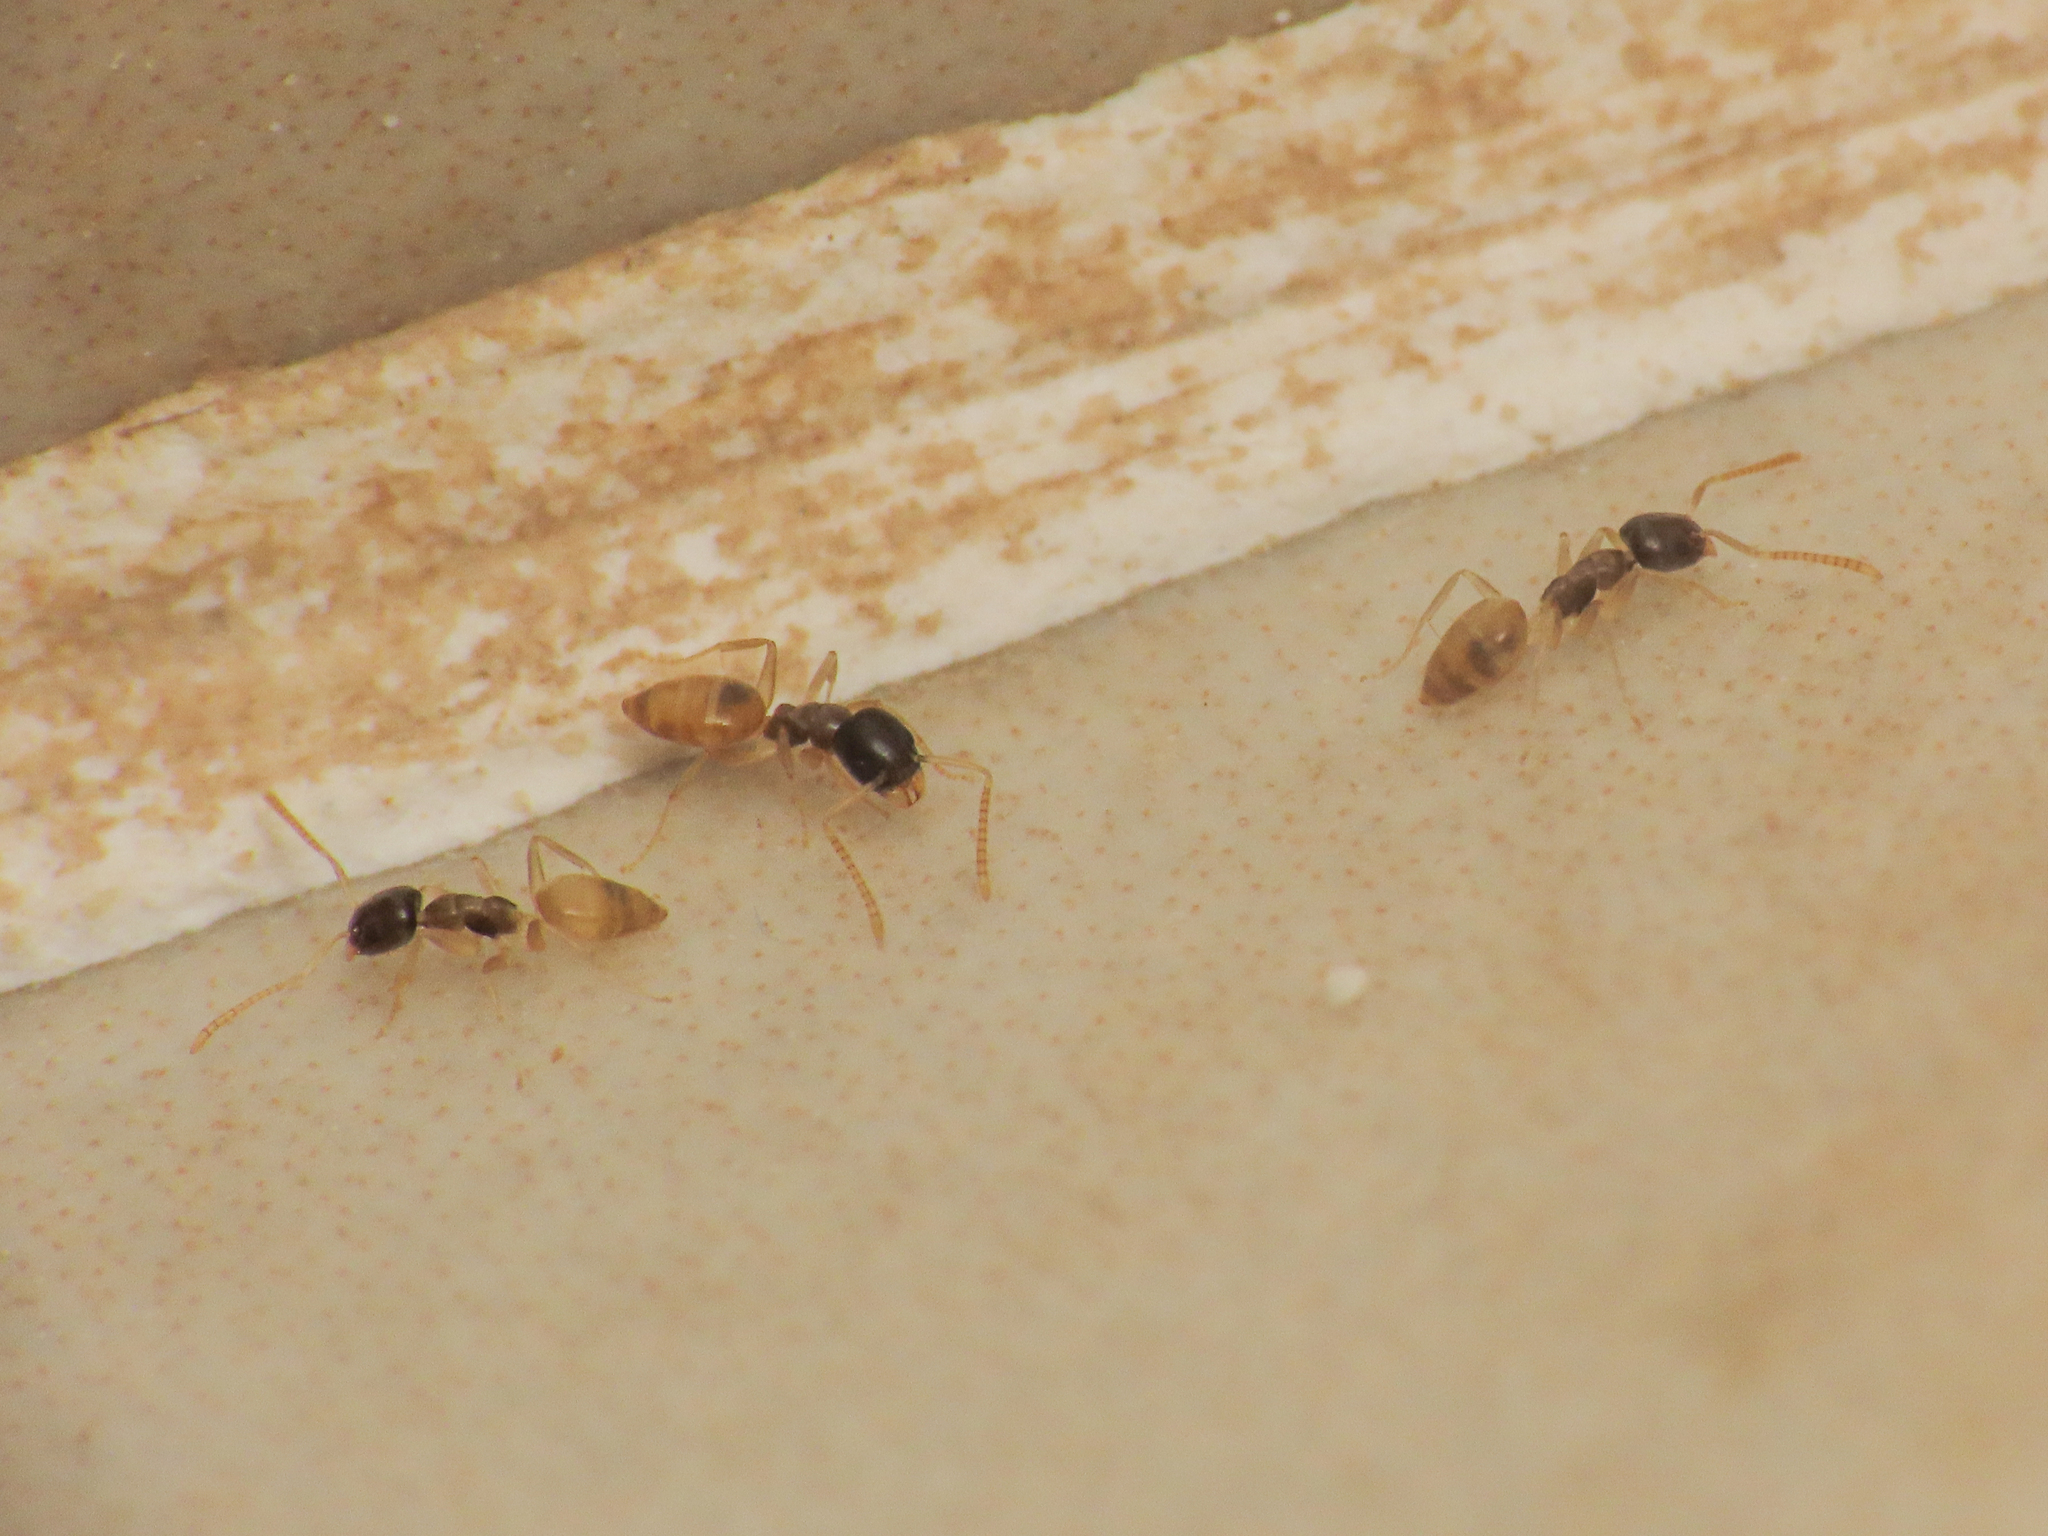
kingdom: Animalia
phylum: Arthropoda
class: Insecta
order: Hymenoptera
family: Formicidae
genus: Tapinoma
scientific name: Tapinoma melanocephalum
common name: Ghost ant
